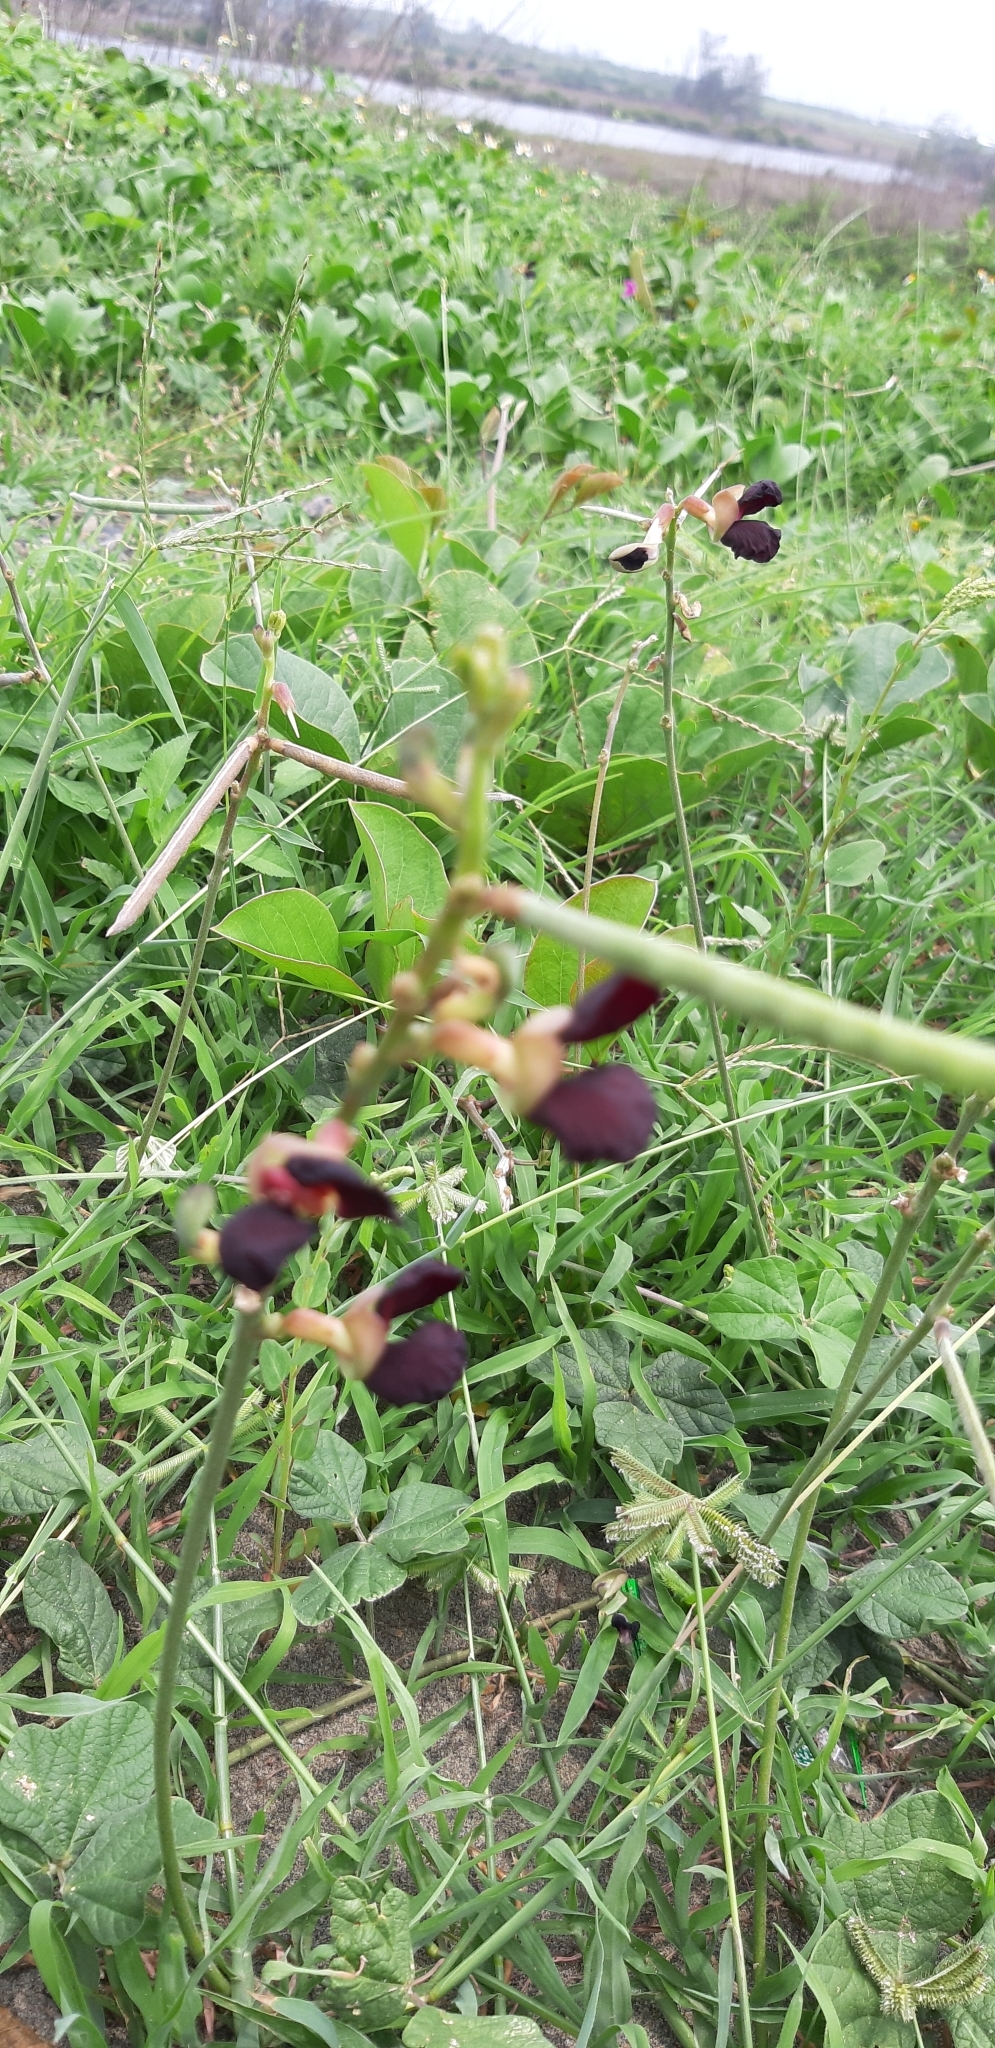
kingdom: Plantae
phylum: Tracheophyta
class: Magnoliopsida
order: Fabales
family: Fabaceae
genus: Macroptilium
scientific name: Macroptilium atropurpureum
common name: Purple bushbean
